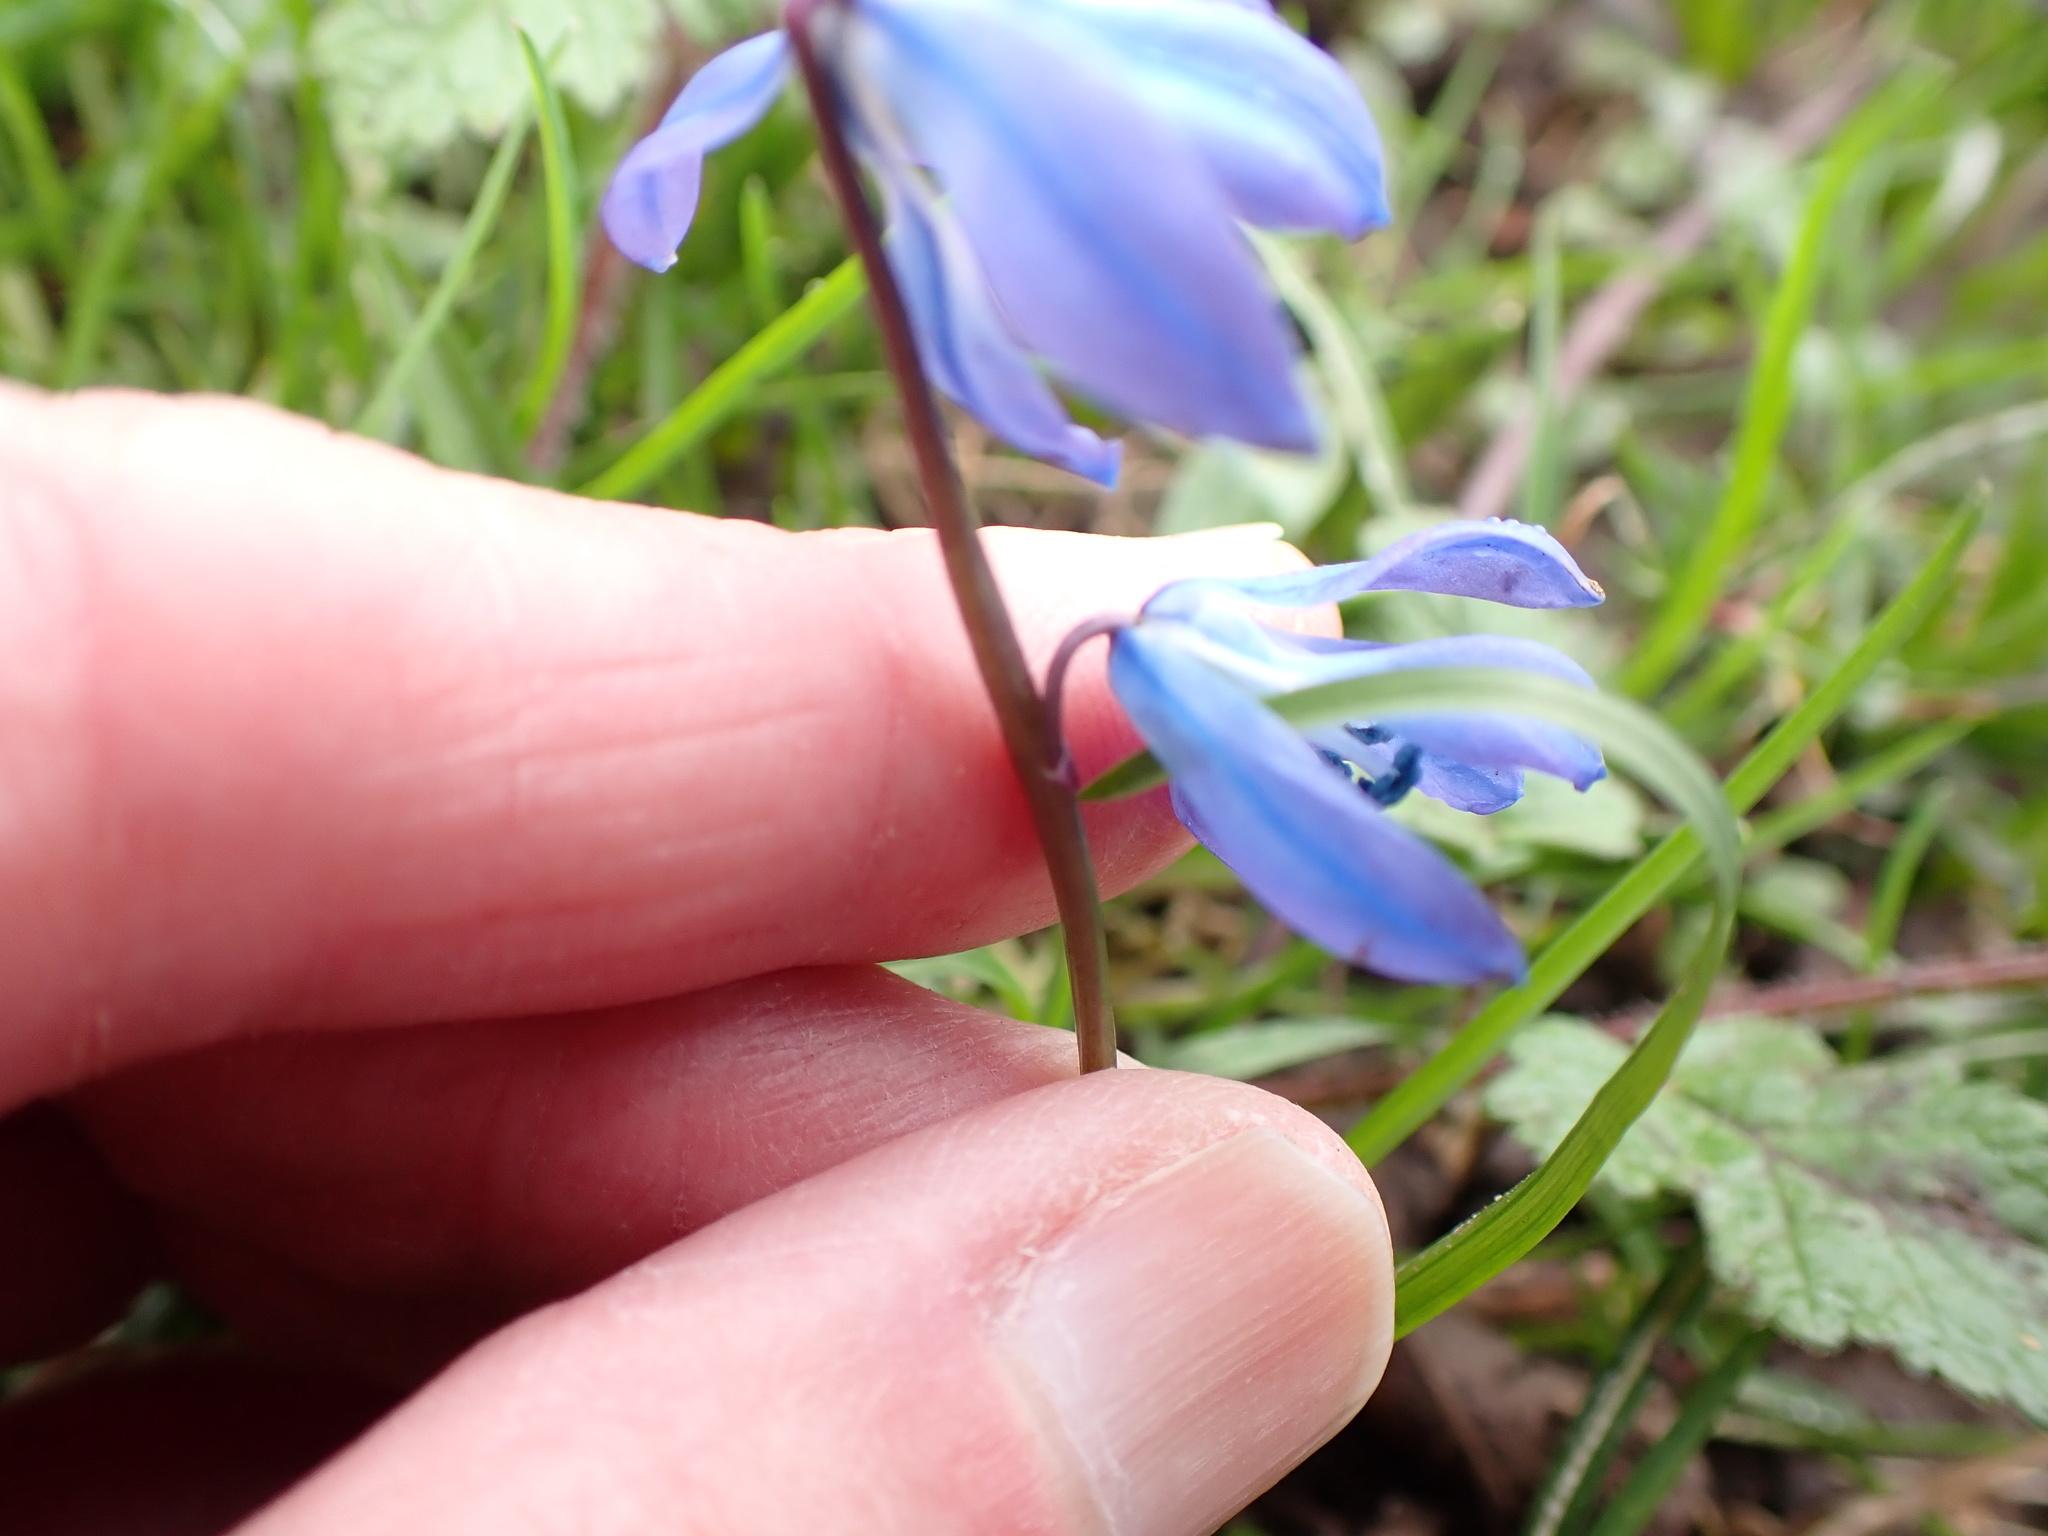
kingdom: Plantae
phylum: Tracheophyta
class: Liliopsida
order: Asparagales
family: Asparagaceae
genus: Scilla
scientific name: Scilla siberica
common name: Siberian squill
